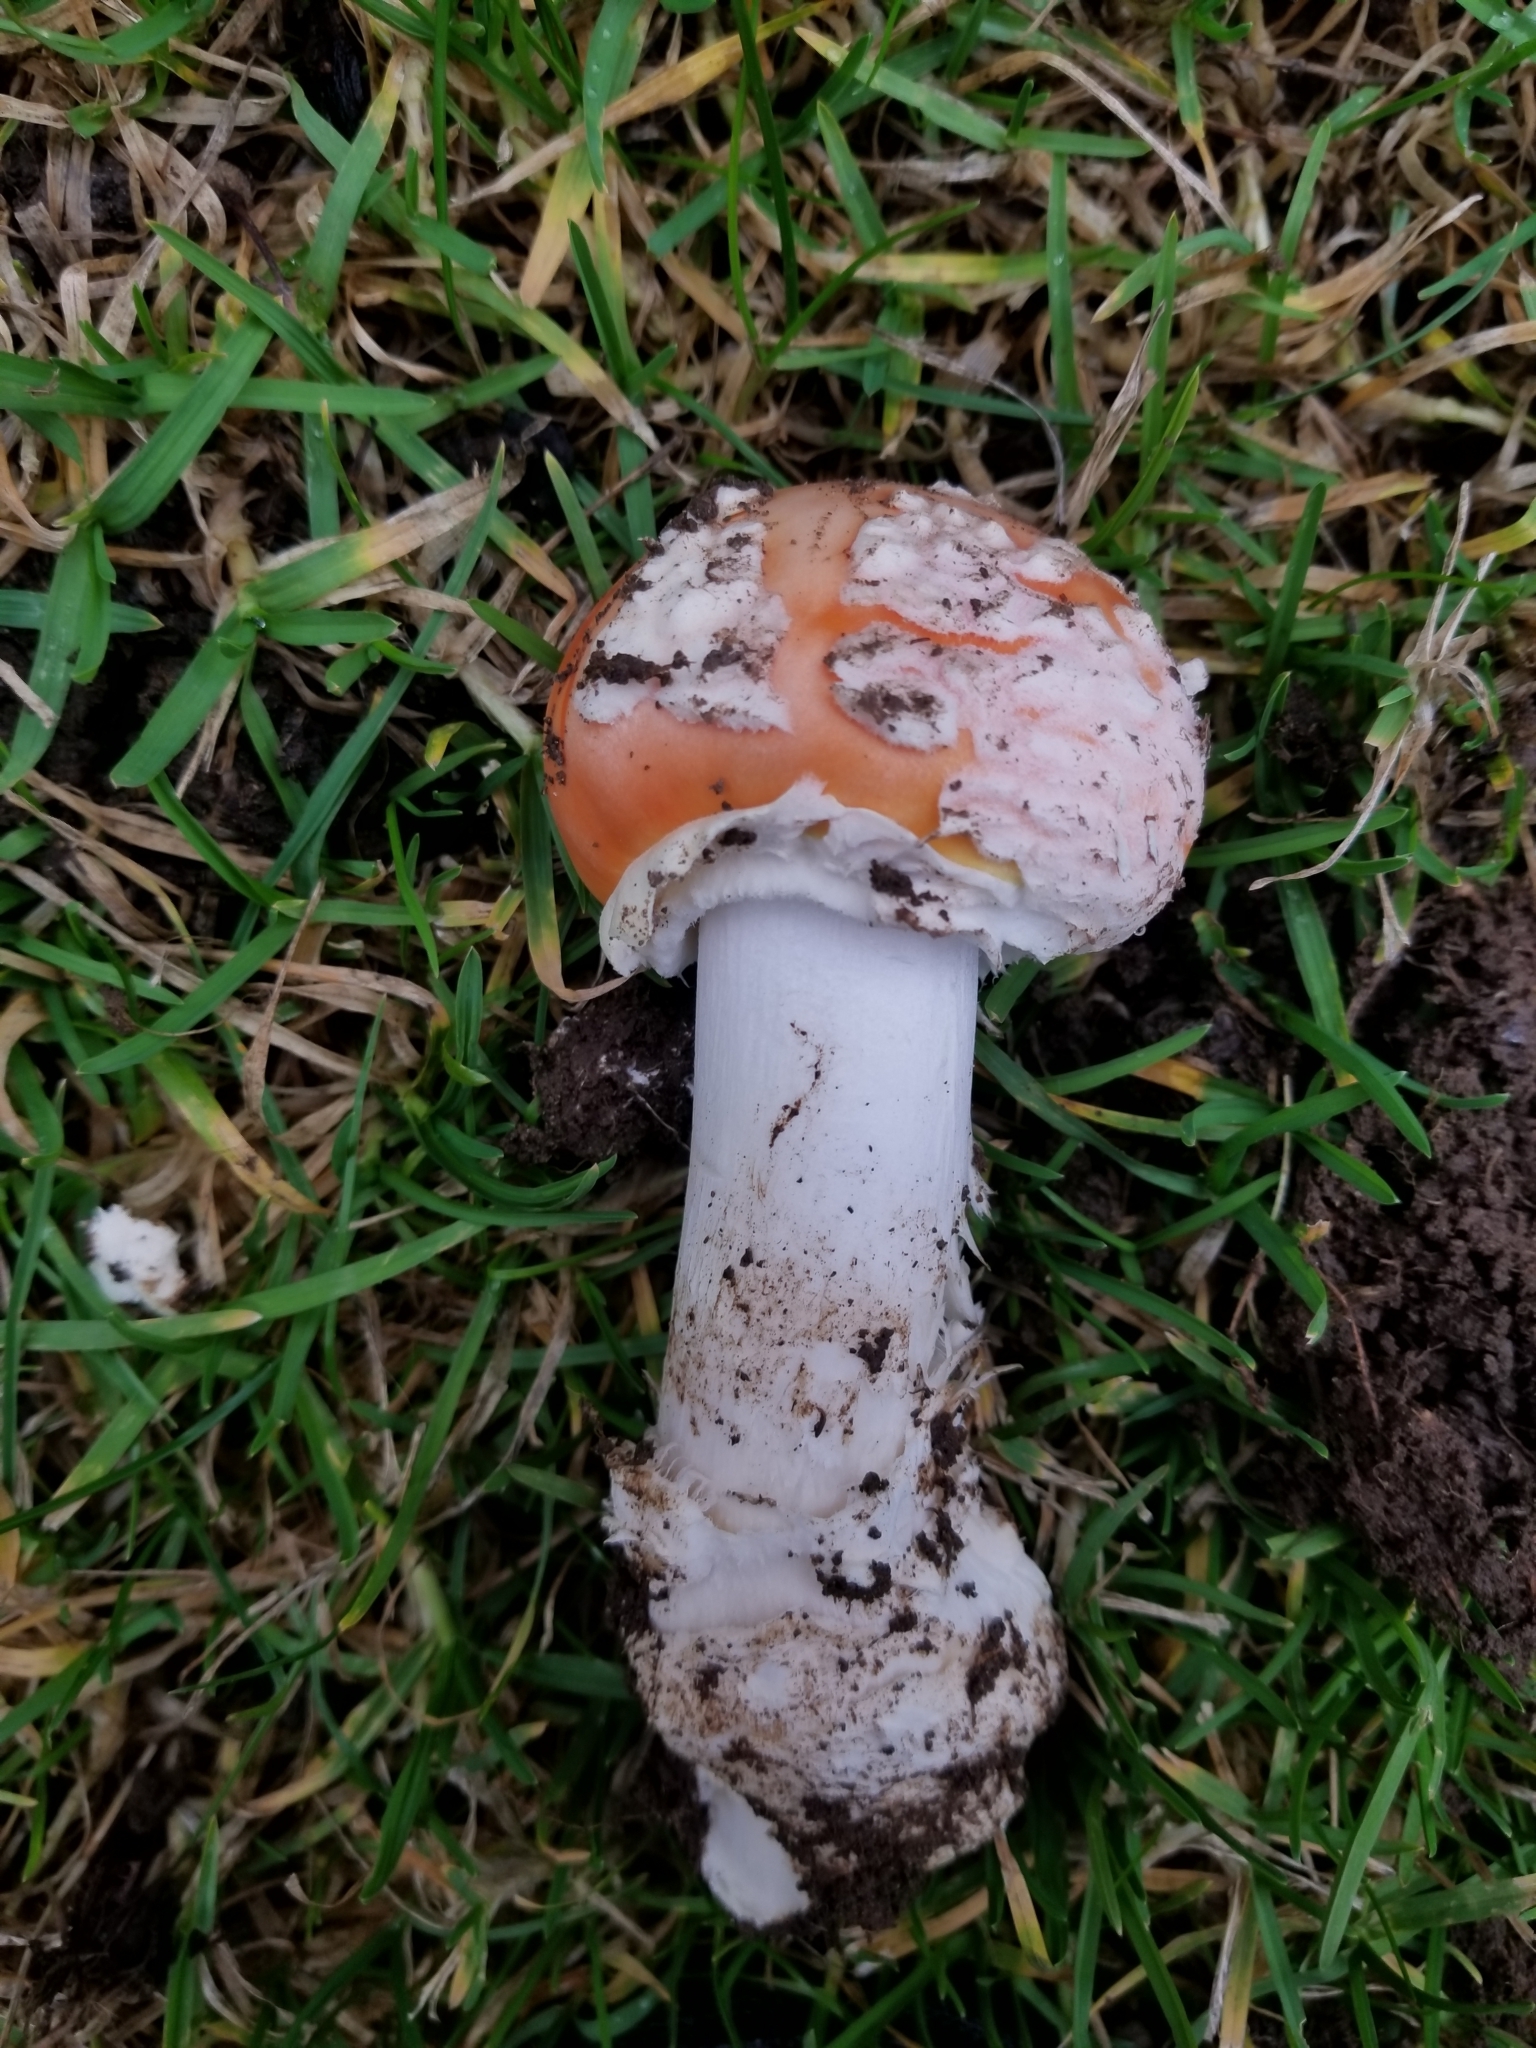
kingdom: Fungi
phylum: Basidiomycota
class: Agaricomycetes
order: Agaricales
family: Amanitaceae
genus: Amanita
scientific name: Amanita muscaria
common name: Fly agaric
